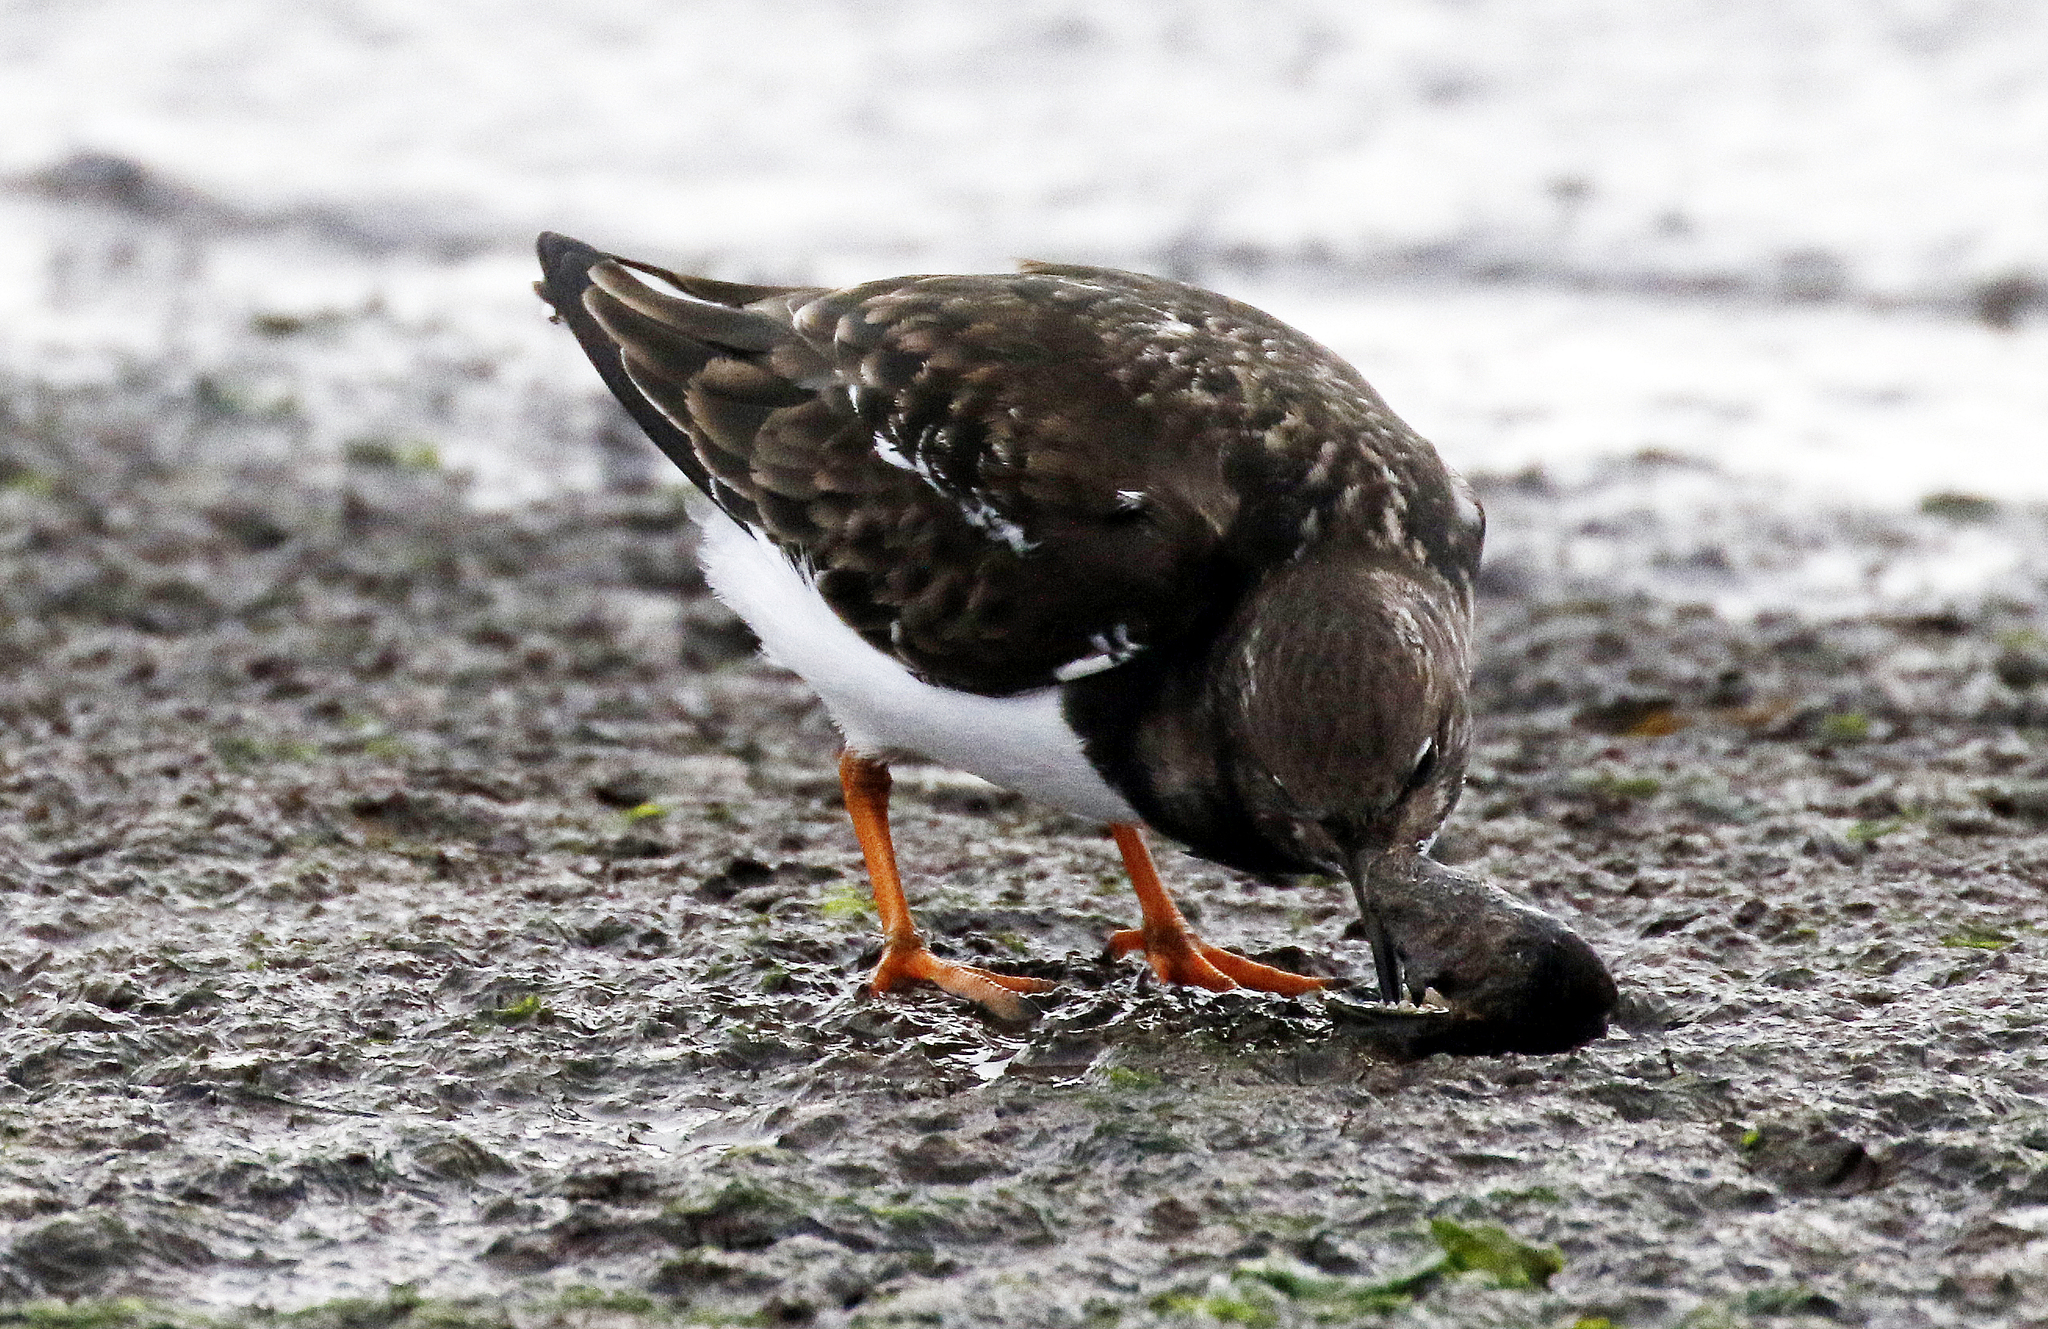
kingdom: Animalia
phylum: Chordata
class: Aves
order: Charadriiformes
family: Scolopacidae
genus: Arenaria
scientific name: Arenaria interpres
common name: Ruddy turnstone
